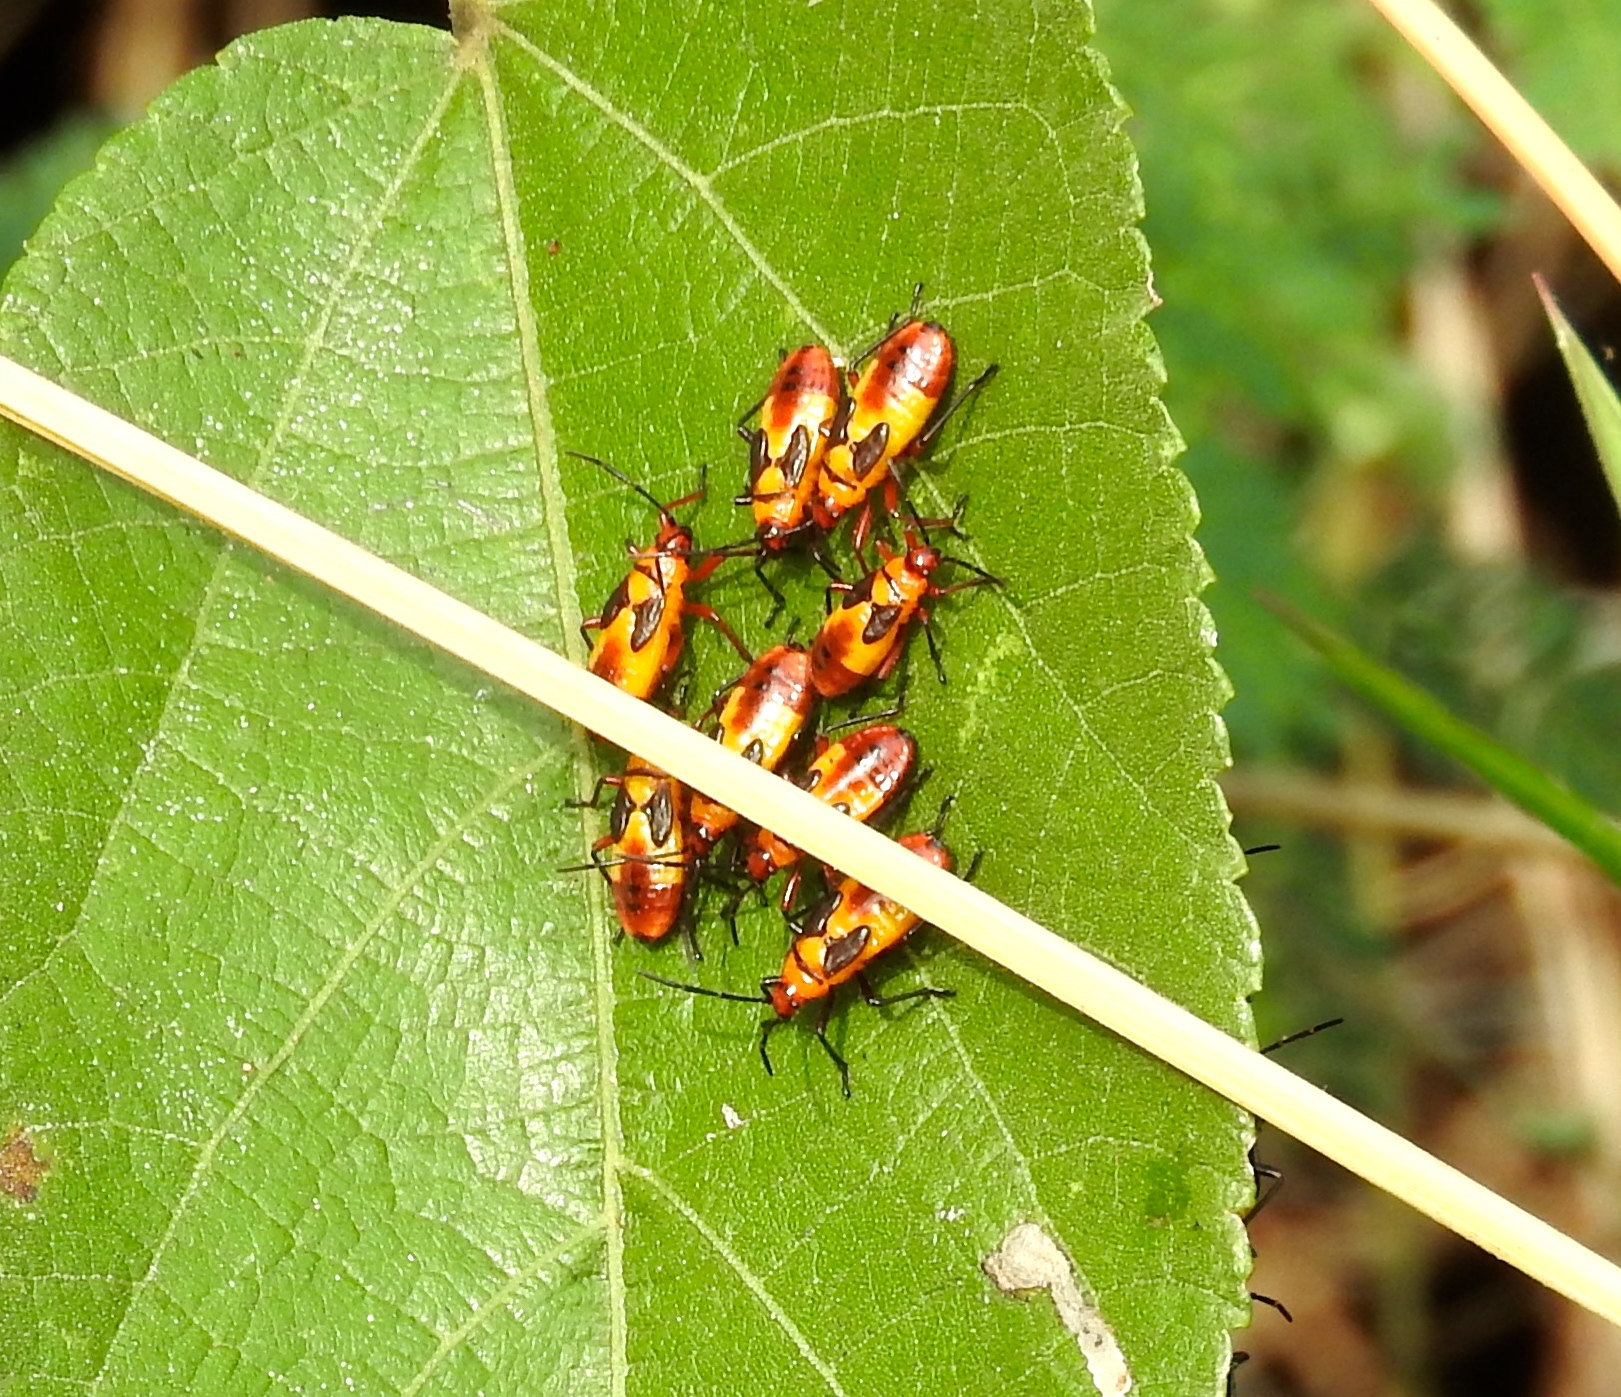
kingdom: Animalia
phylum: Arthropoda
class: Insecta
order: Hemiptera
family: Lygaeidae
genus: Oncopeltus
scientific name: Oncopeltus
